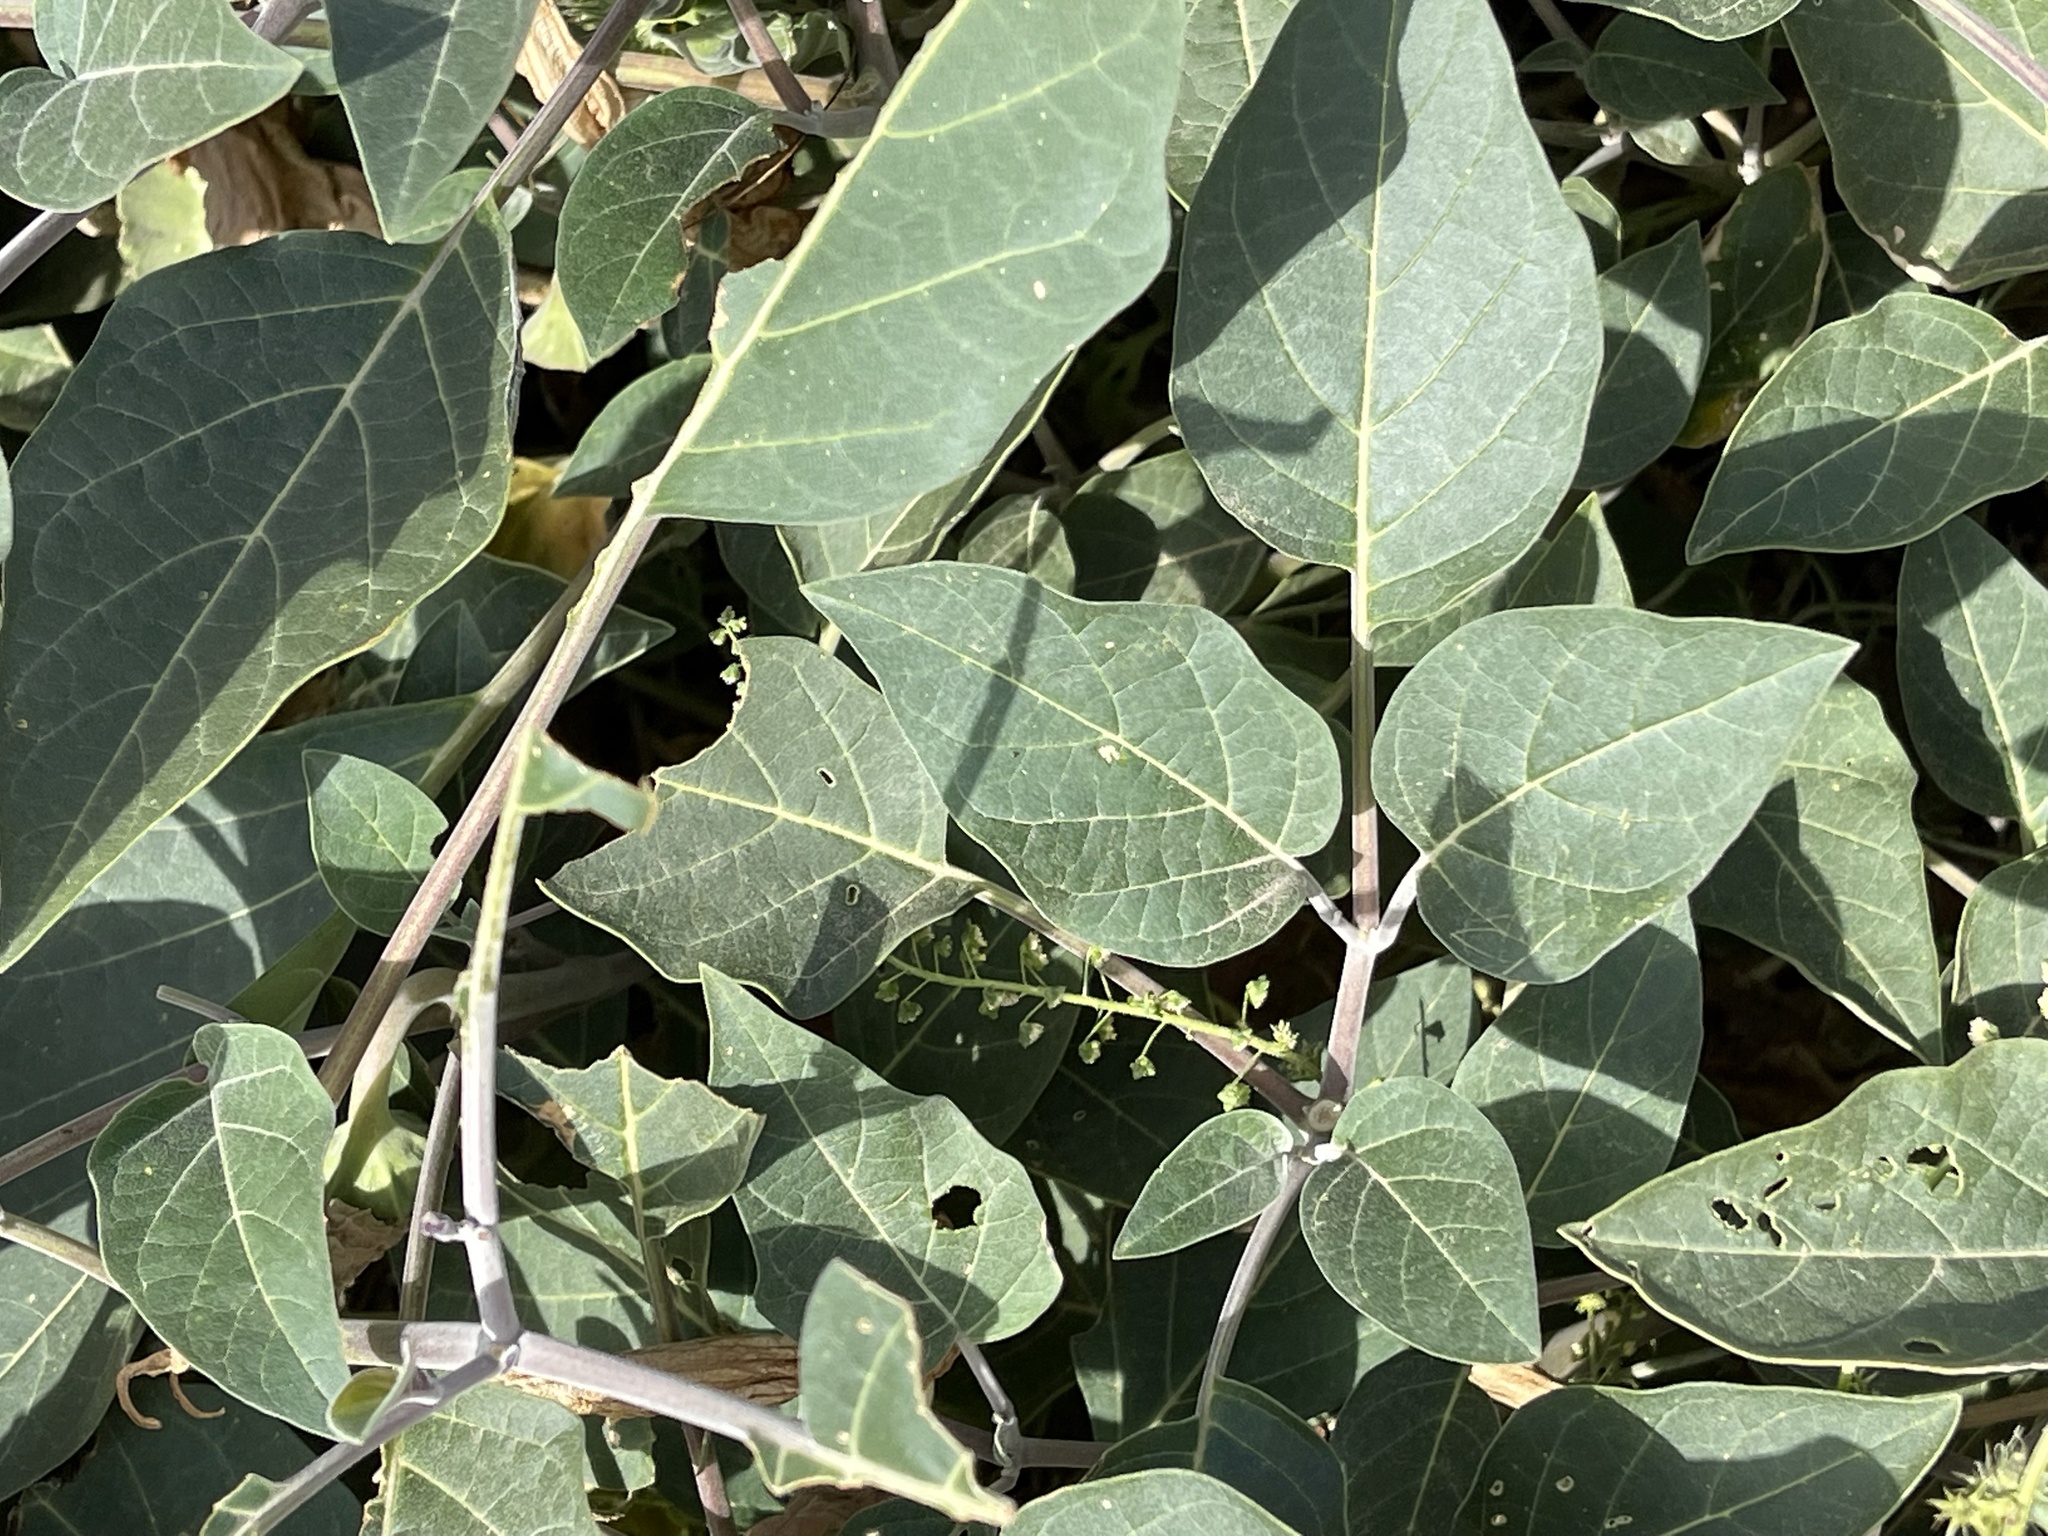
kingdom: Plantae
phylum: Tracheophyta
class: Magnoliopsida
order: Solanales
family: Solanaceae
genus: Datura
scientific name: Datura wrightii
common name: Sacred thorn-apple
